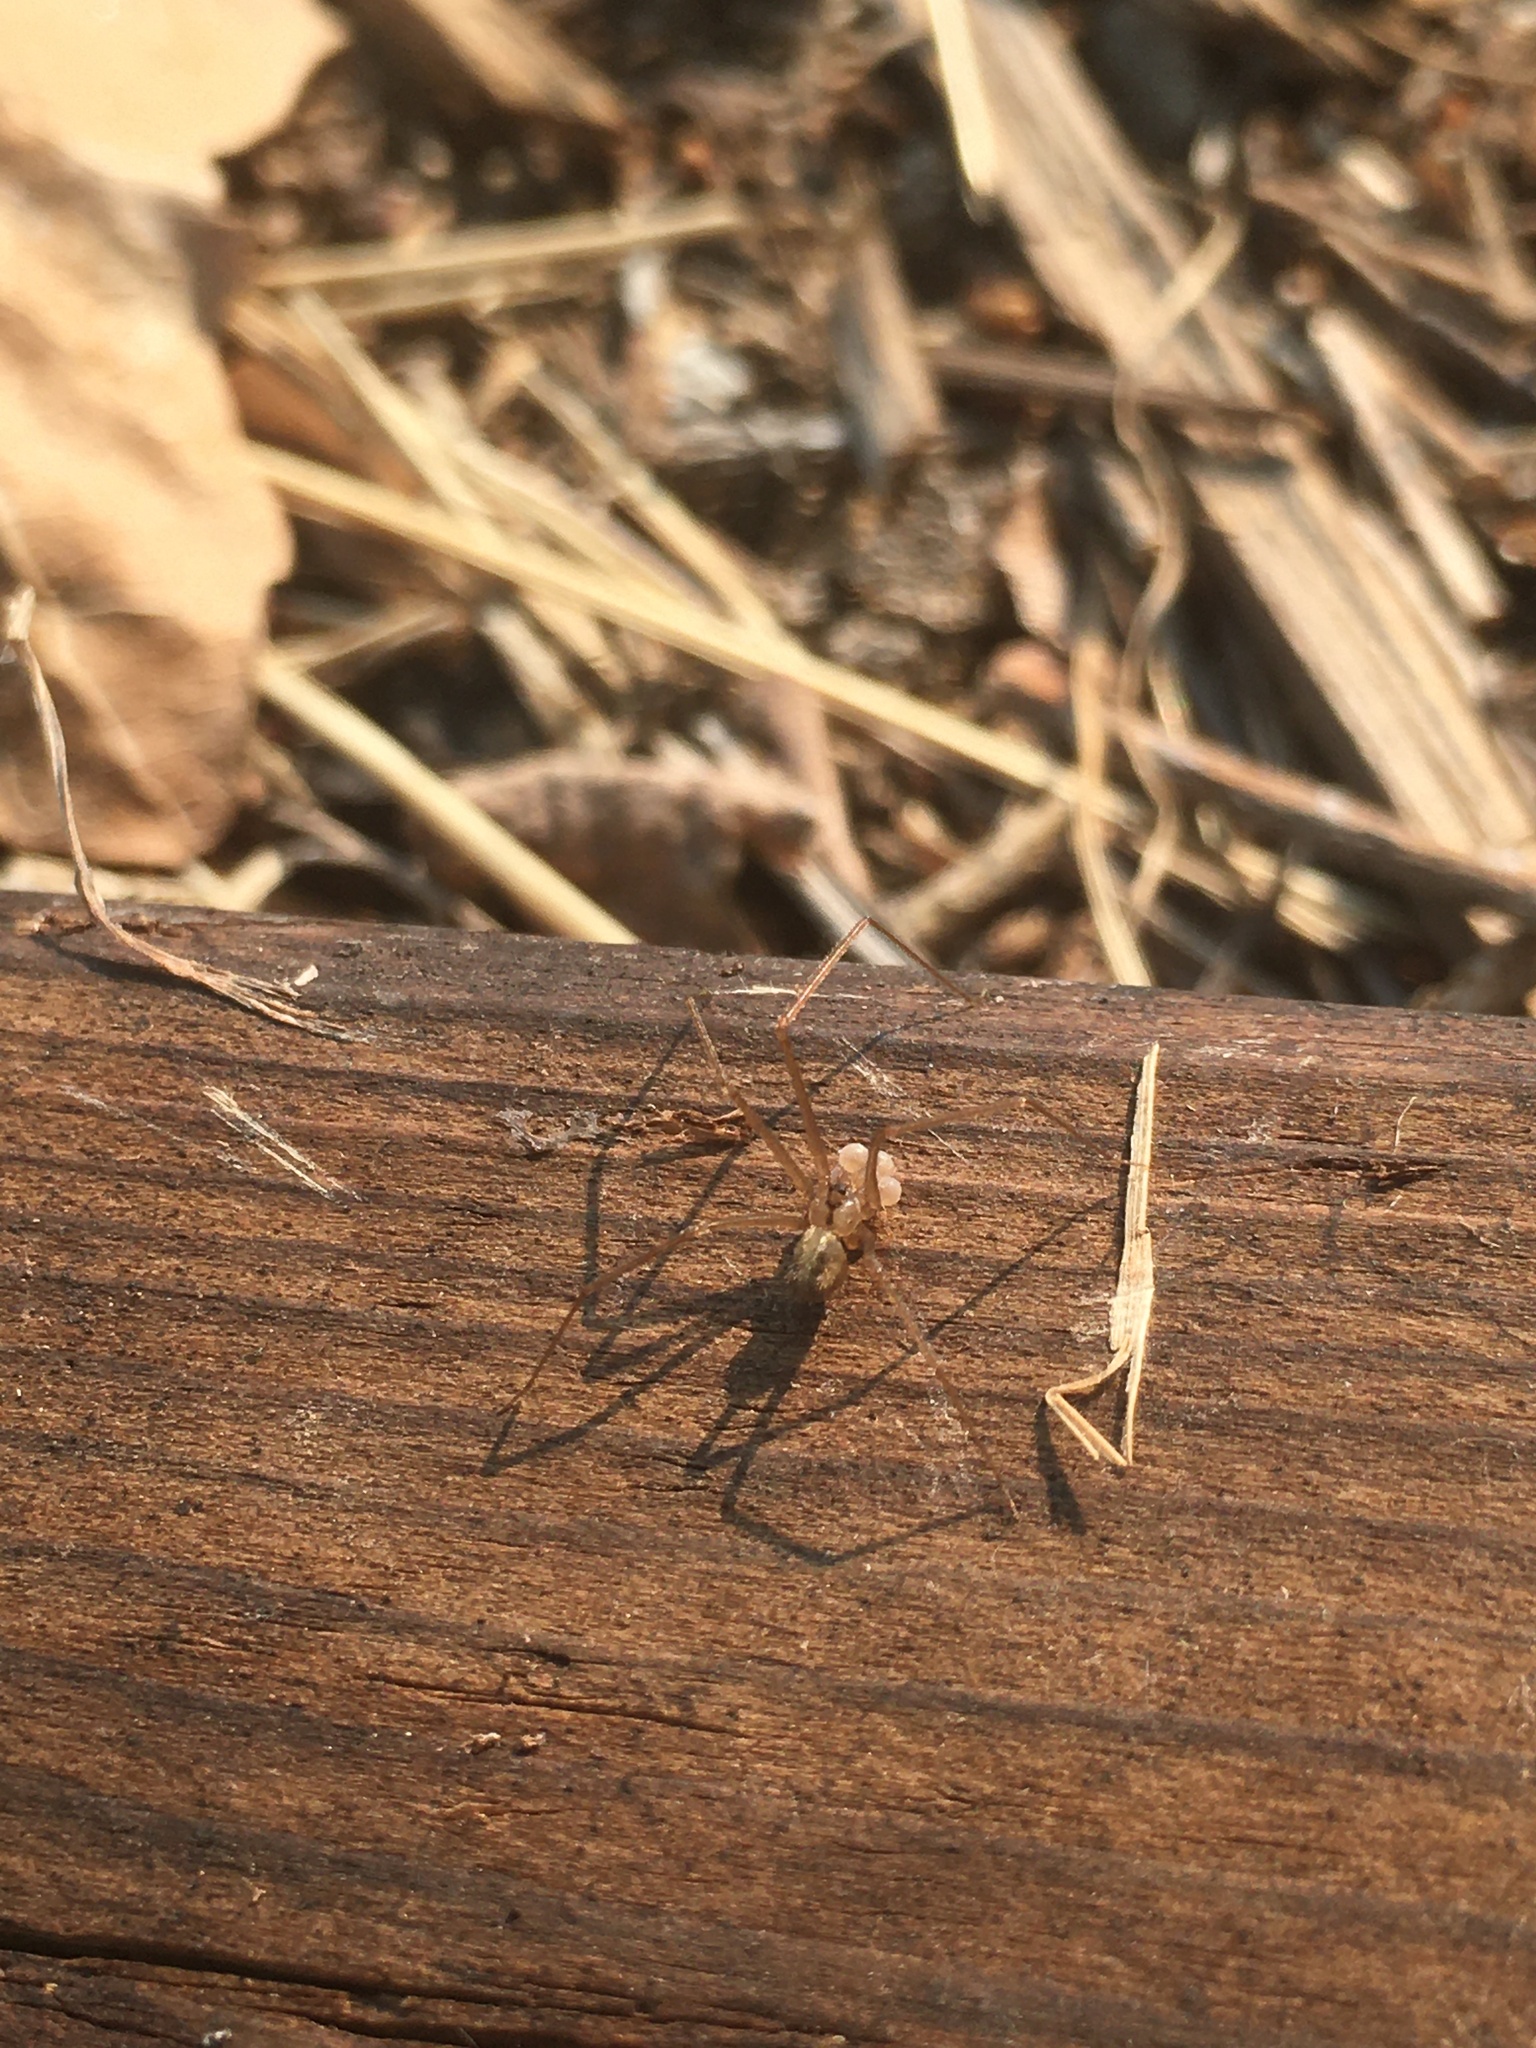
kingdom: Animalia
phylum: Arthropoda
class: Arachnida
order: Araneae
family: Pholcidae
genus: Psilochorus
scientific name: Psilochorus hesperus
